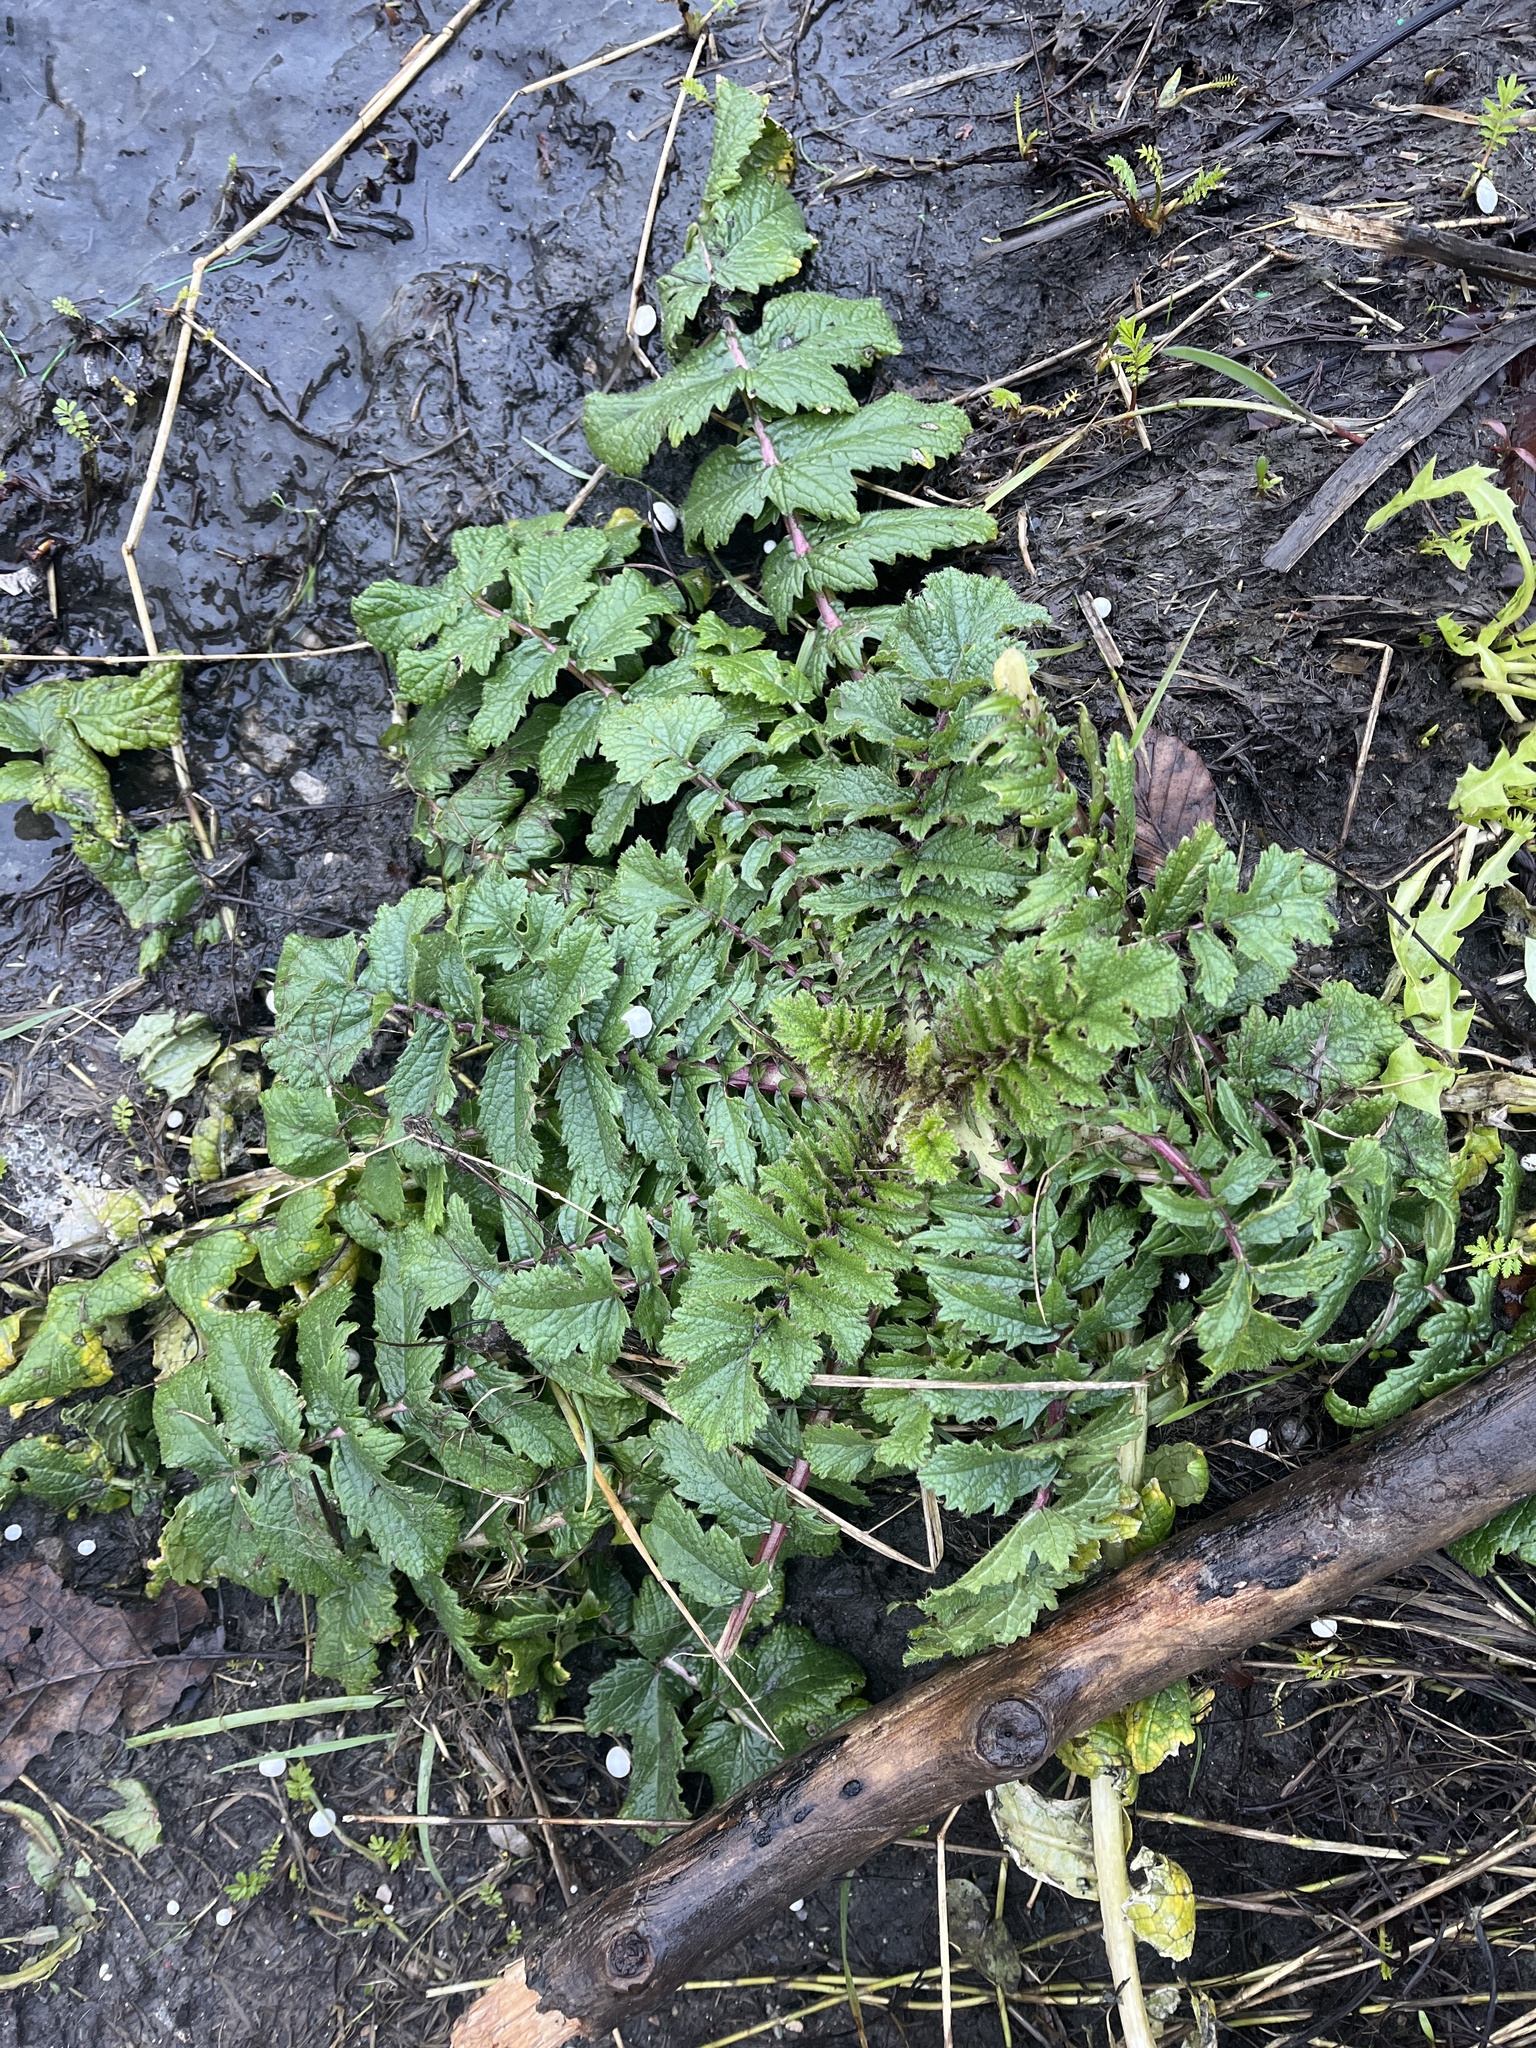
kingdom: Plantae
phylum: Tracheophyta
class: Magnoliopsida
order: Brassicales
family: Brassicaceae
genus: Raphanus
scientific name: Raphanus raphanistrum
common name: Wild radish
